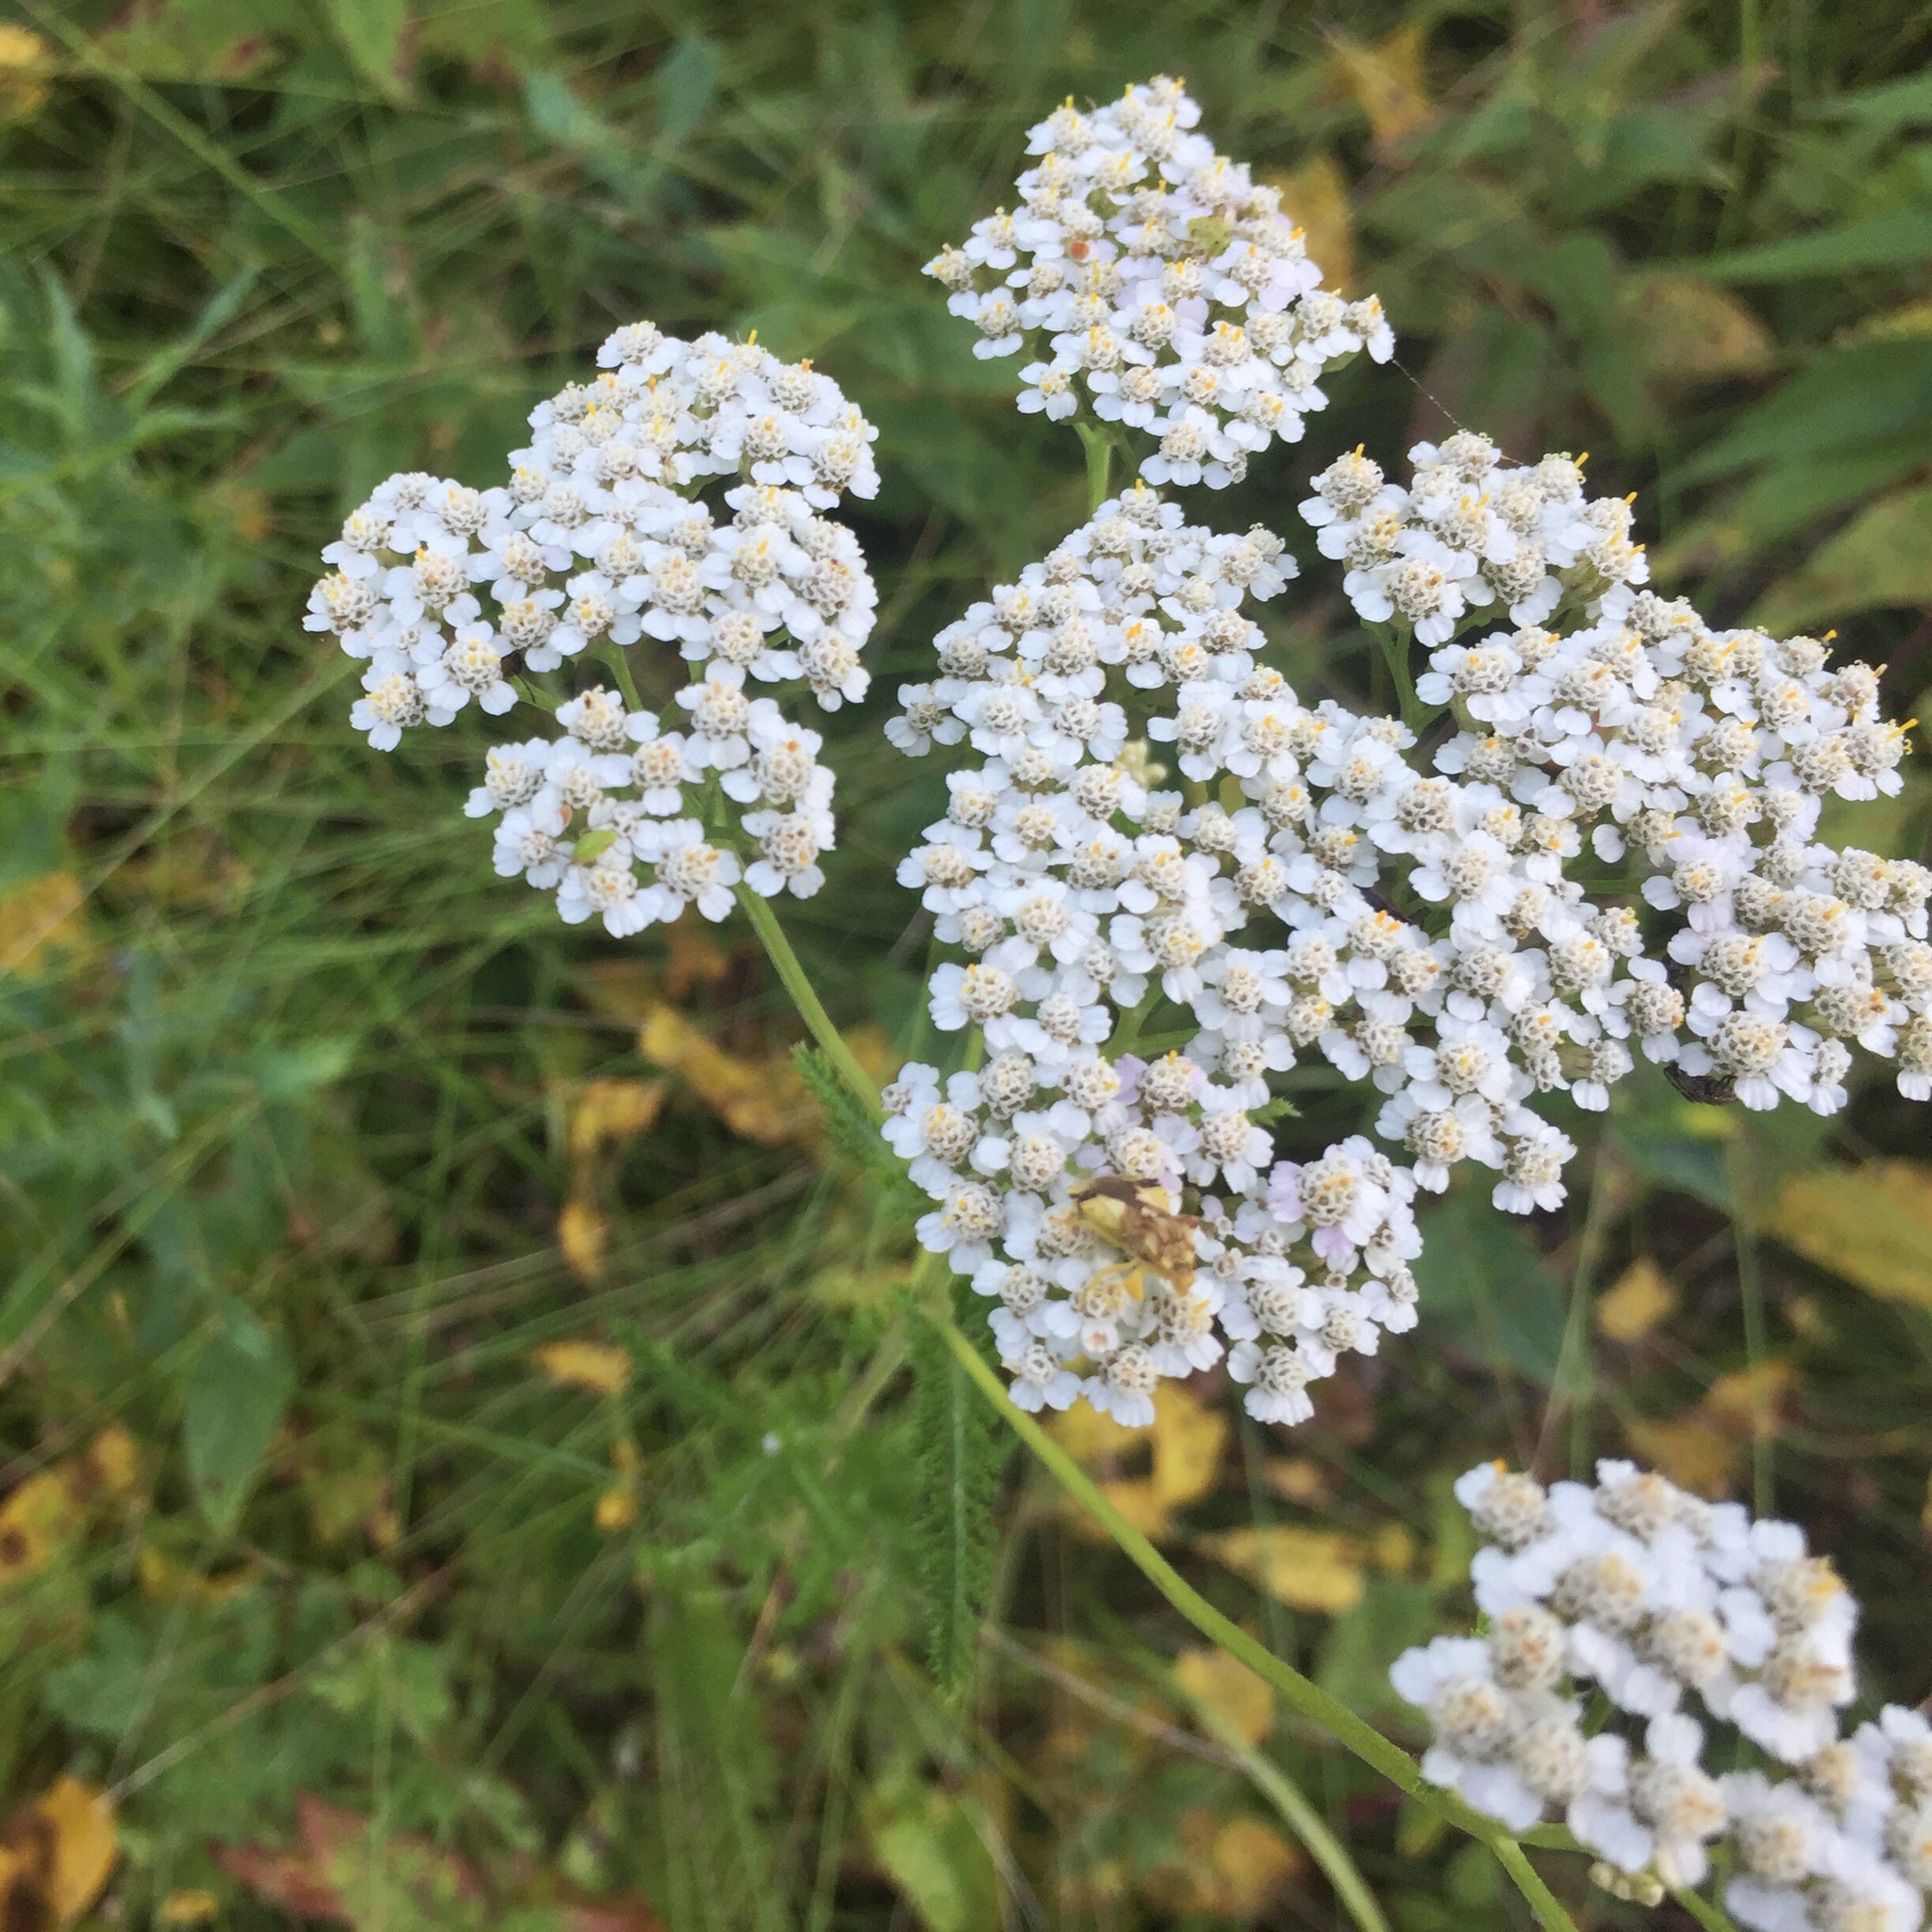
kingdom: Plantae
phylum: Tracheophyta
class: Magnoliopsida
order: Asterales
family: Asteraceae
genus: Achillea
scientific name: Achillea millefolium
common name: Yarrow
